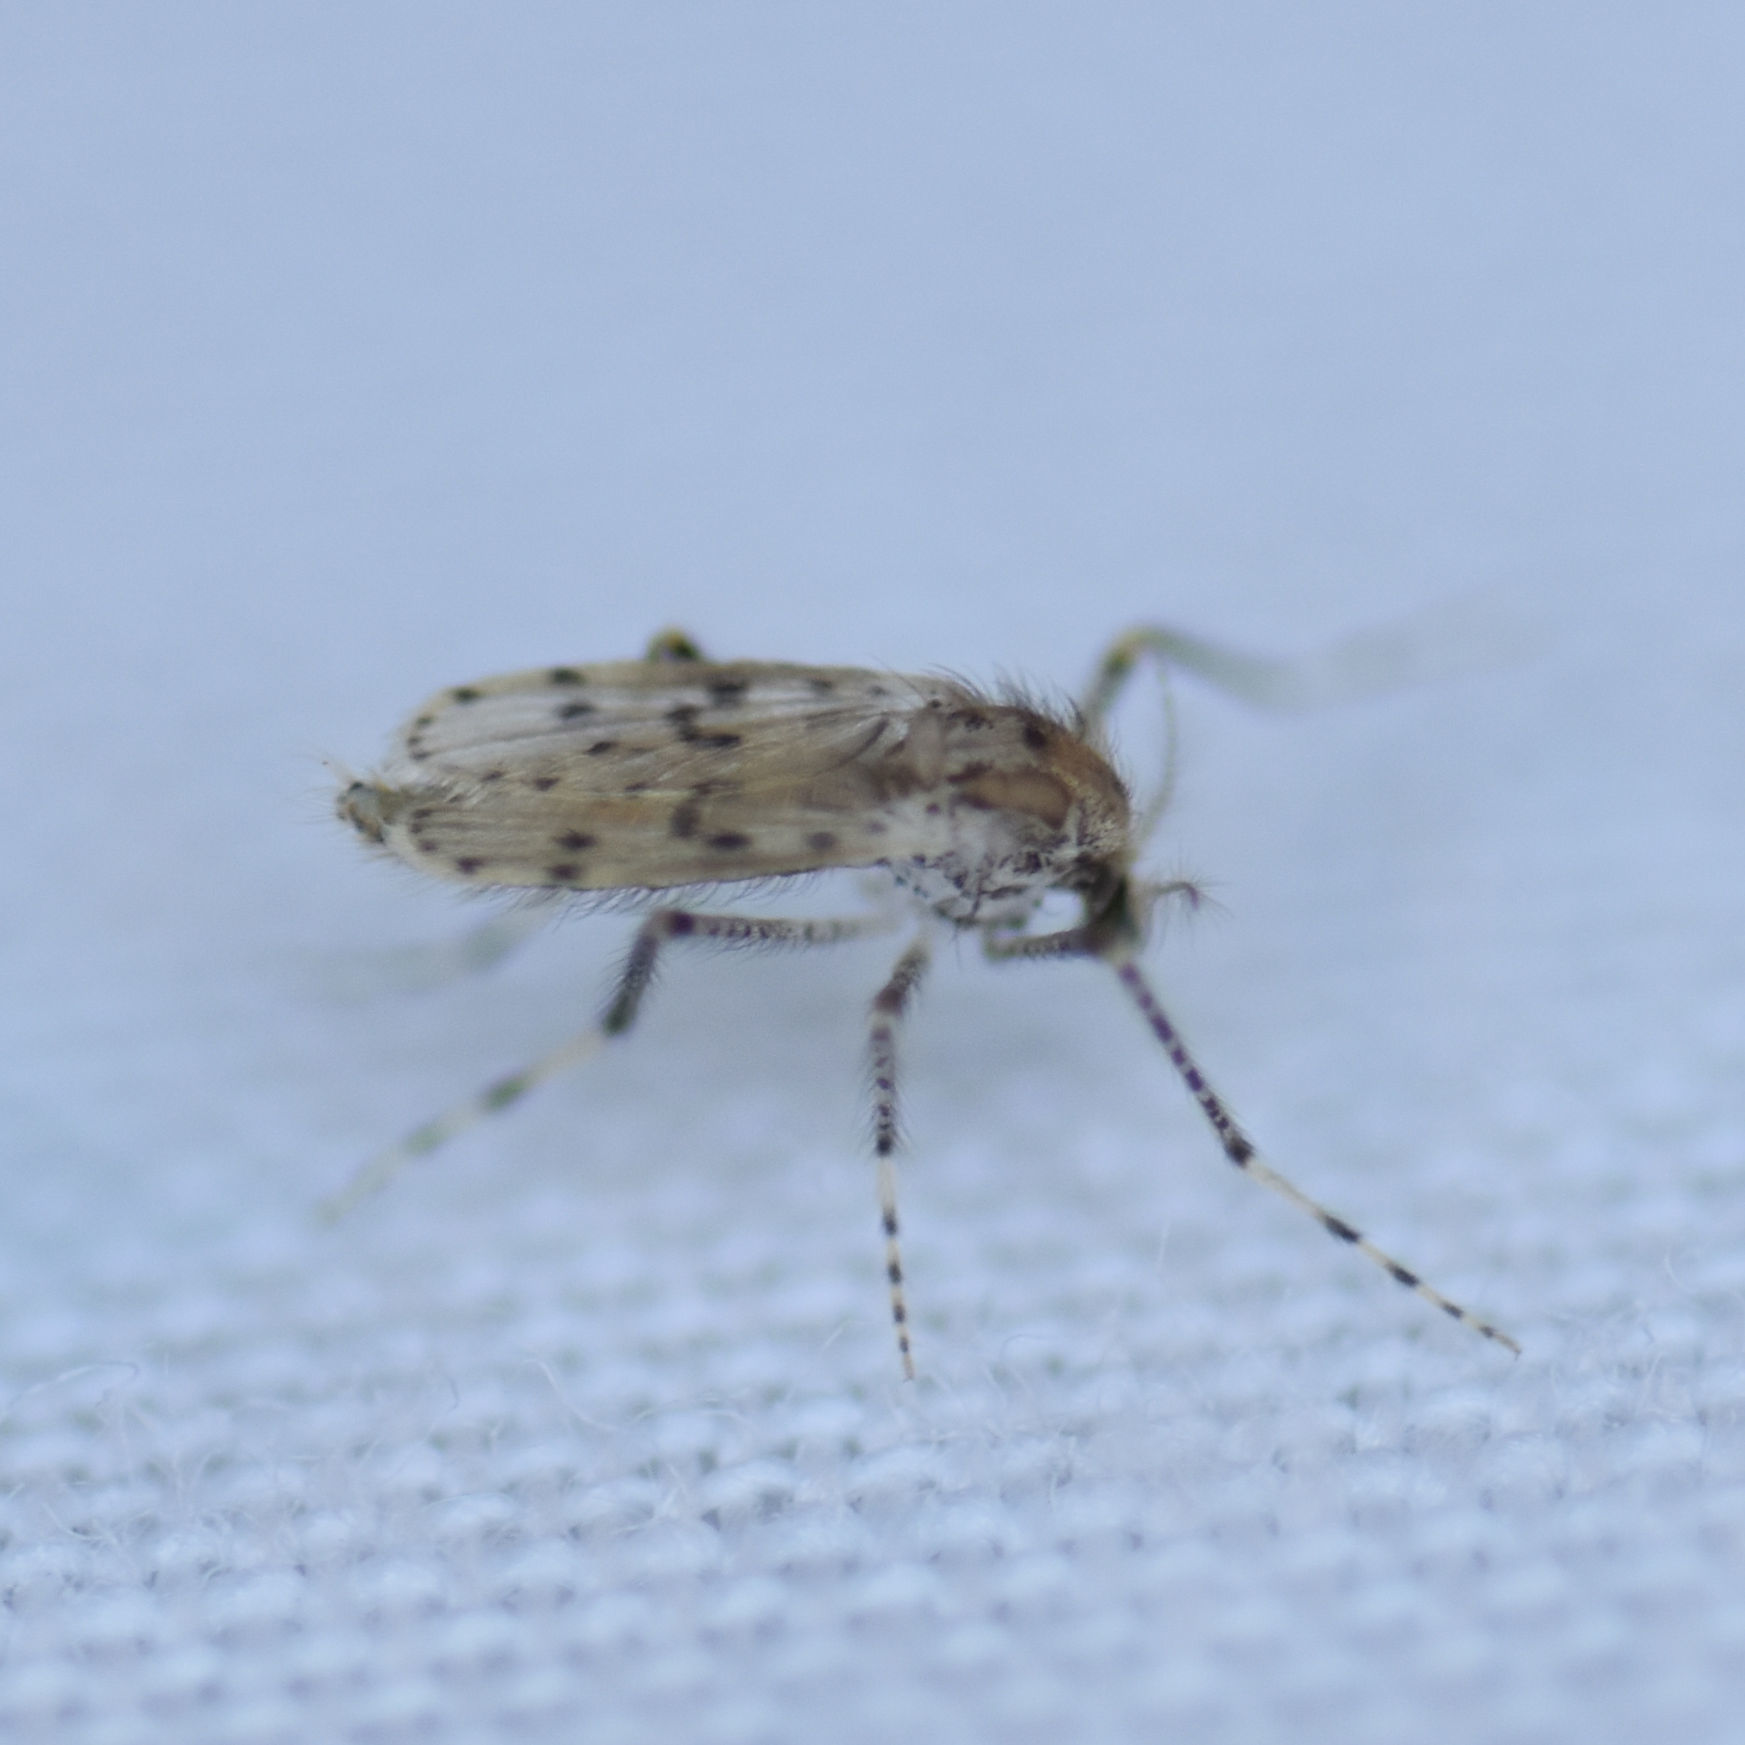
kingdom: Animalia
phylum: Arthropoda
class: Insecta
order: Diptera
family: Chaoboridae
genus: Chaoborus
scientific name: Chaoborus punctipennis
